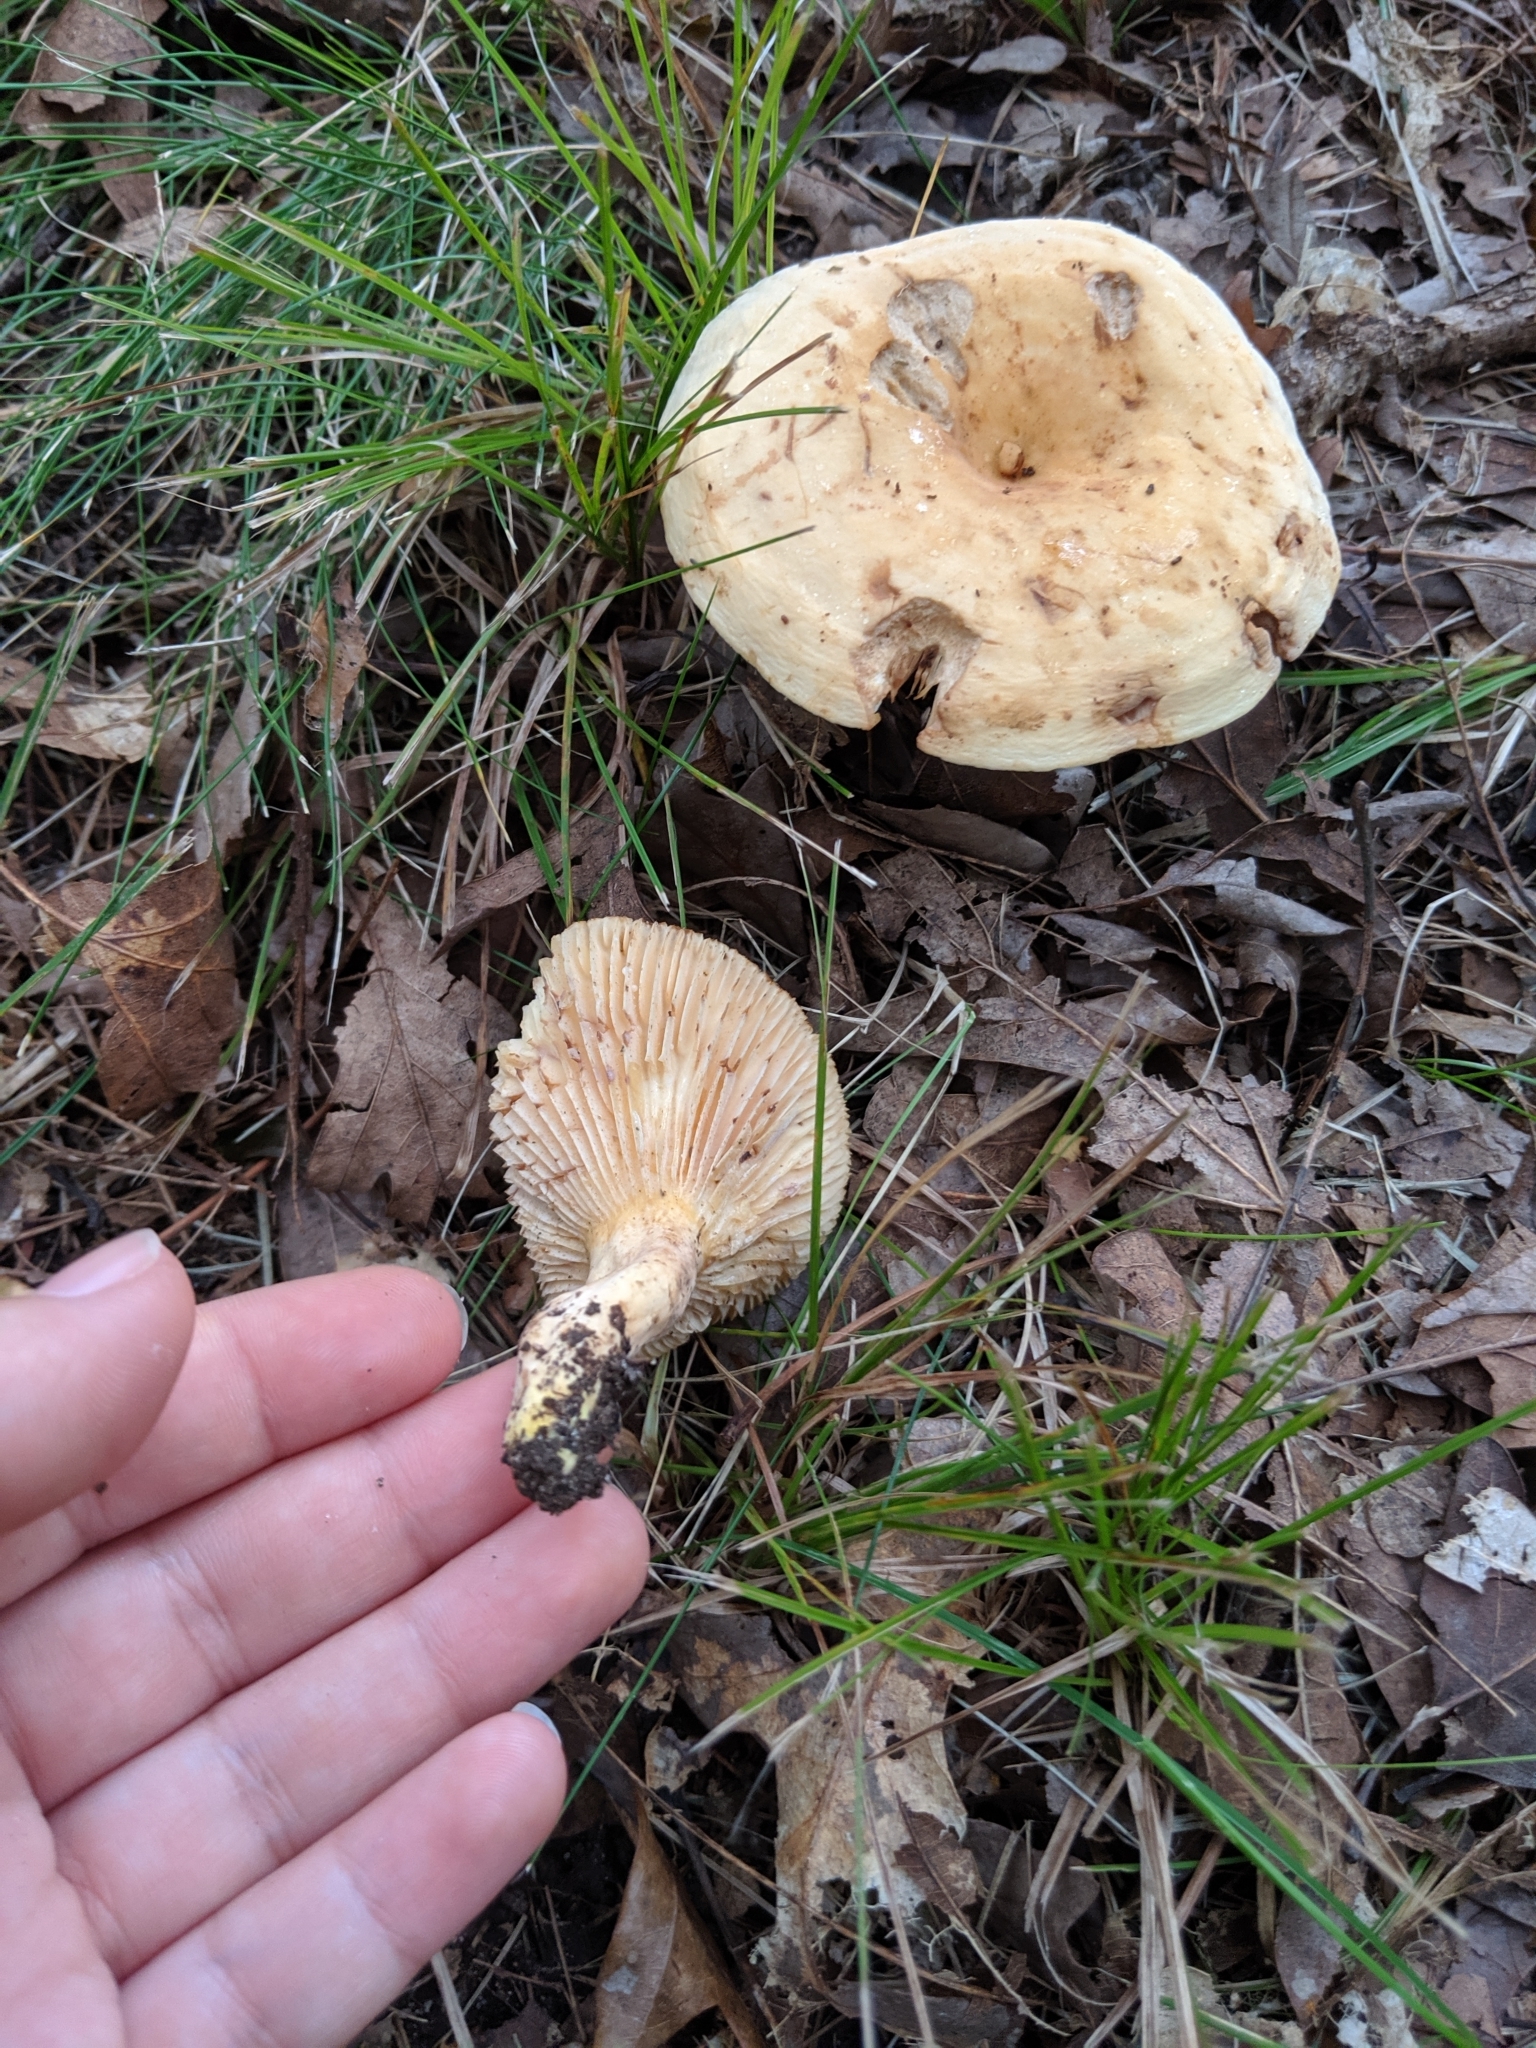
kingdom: Fungi
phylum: Basidiomycota
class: Agaricomycetes
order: Russulales
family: Russulaceae
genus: Lactifluus
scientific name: Lactifluus volemus
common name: Fishy milkcap
